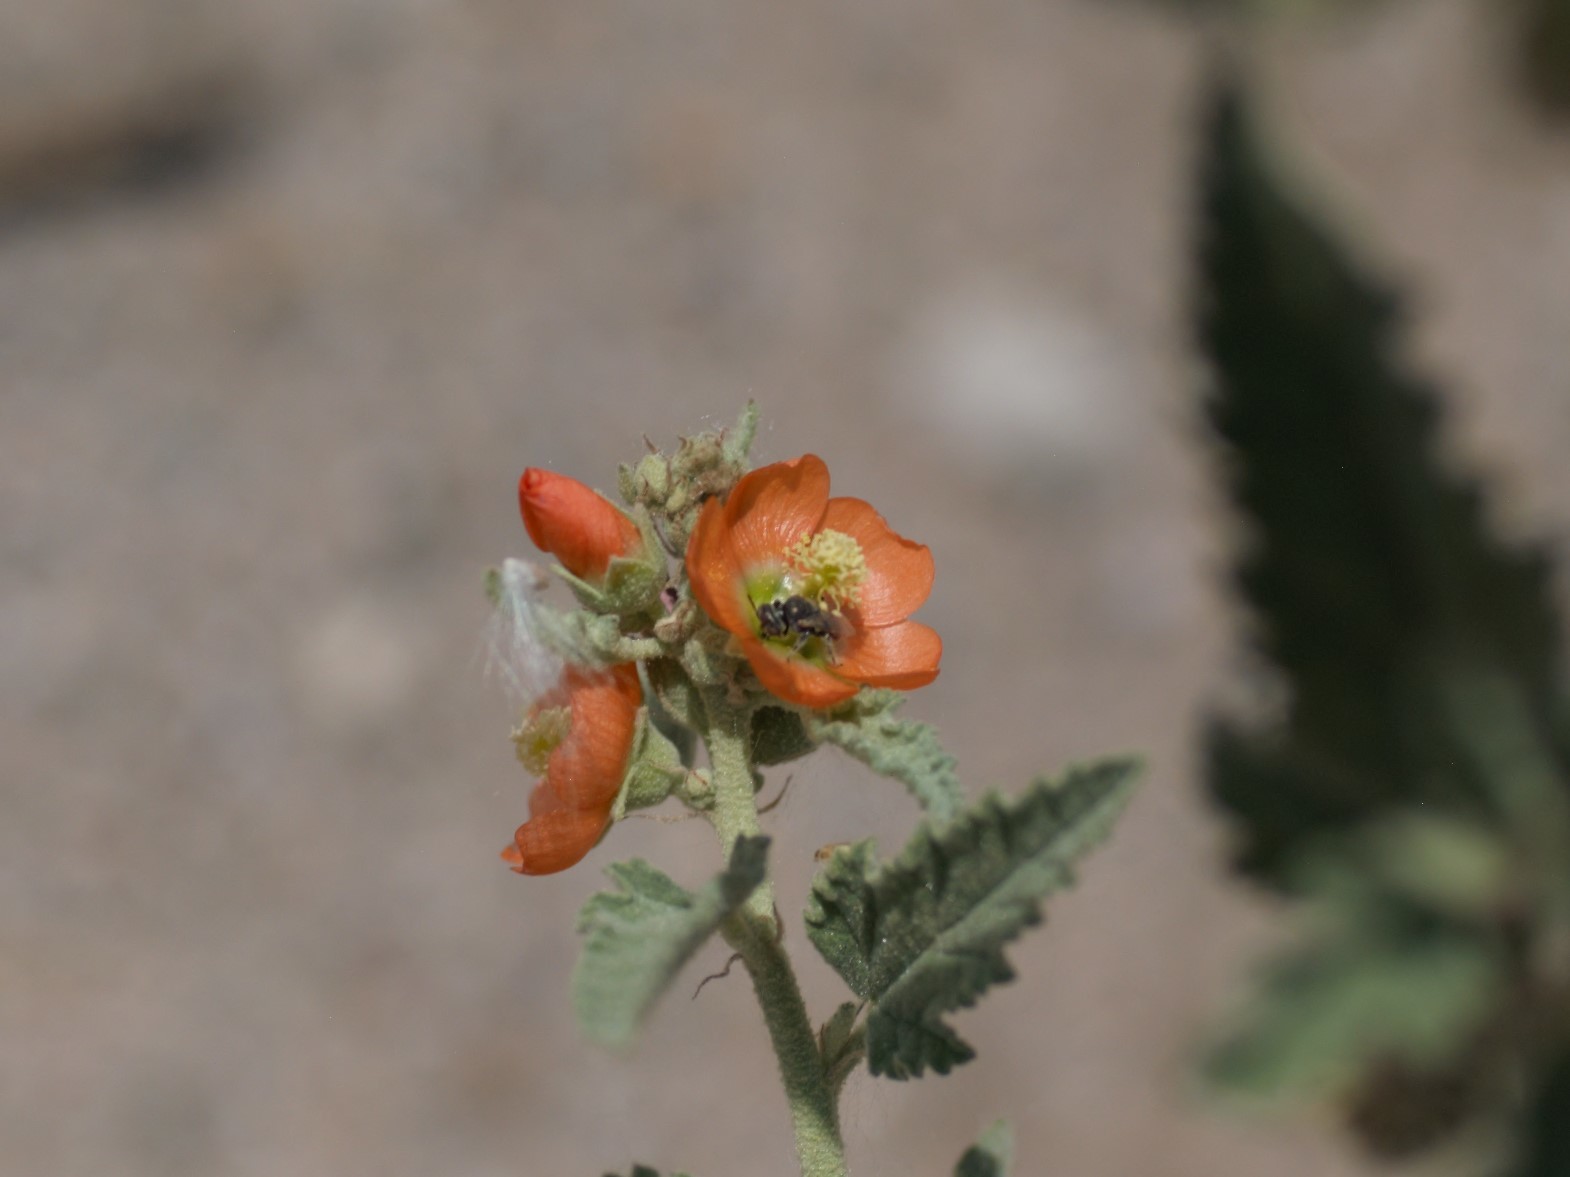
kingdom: Animalia
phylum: Arthropoda
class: Insecta
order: Hymenoptera
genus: Macroteropsis
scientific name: Macroteropsis
